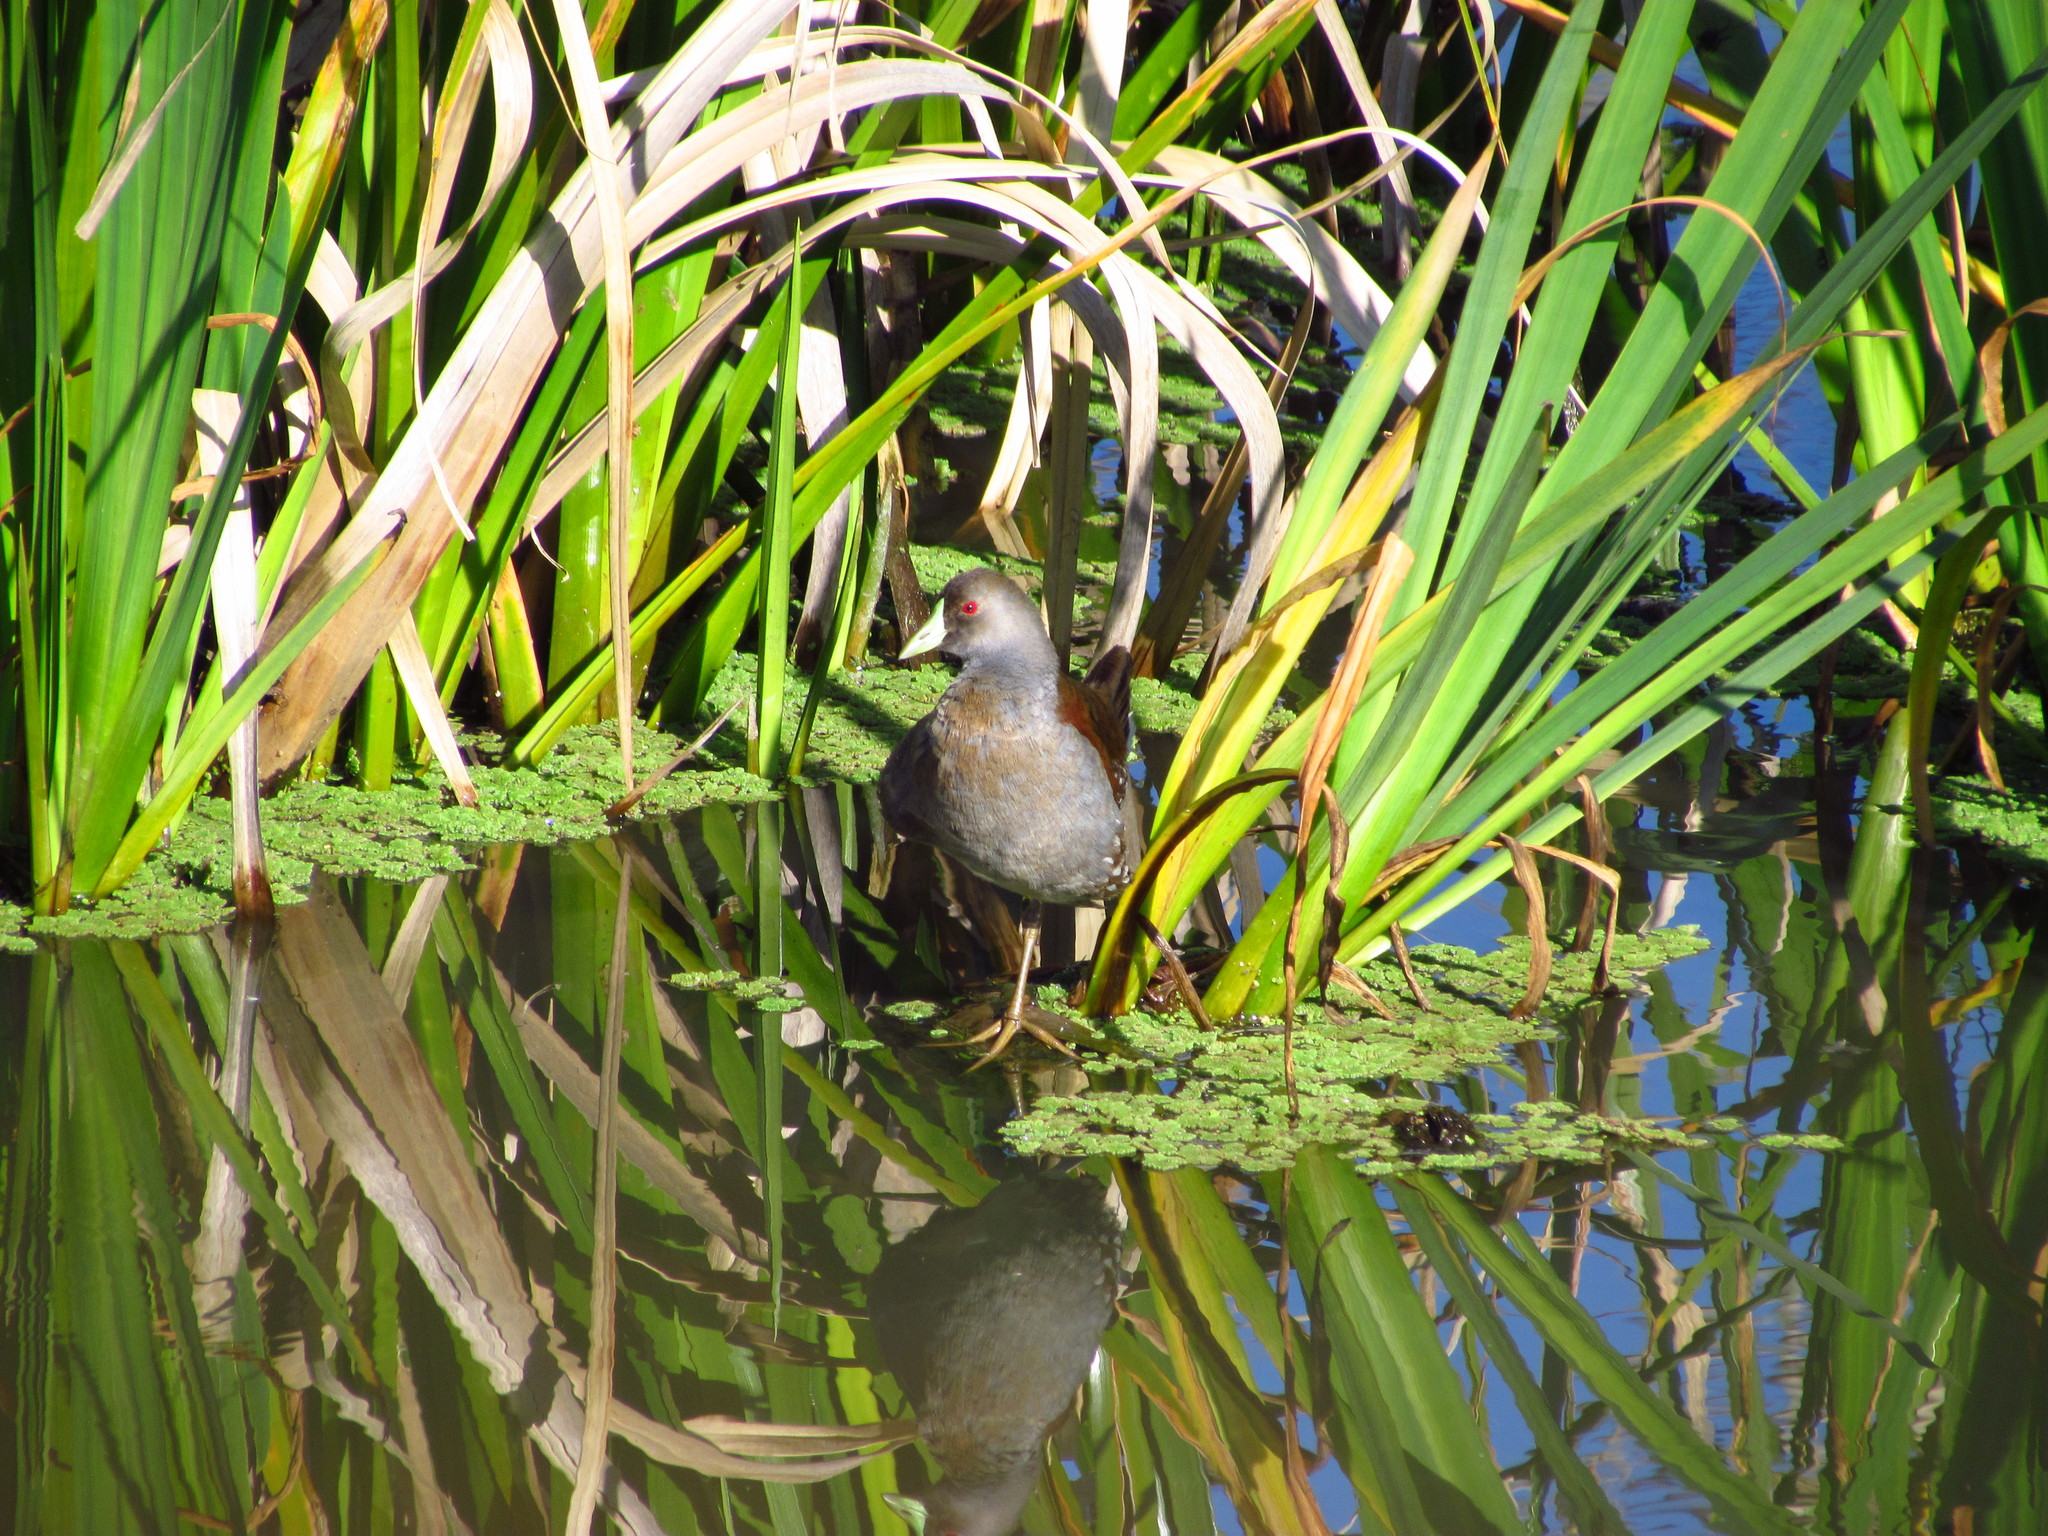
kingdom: Animalia
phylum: Chordata
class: Aves
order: Gruiformes
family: Rallidae
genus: Gallinula
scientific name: Gallinula melanops
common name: Spot-flanked gallinule
